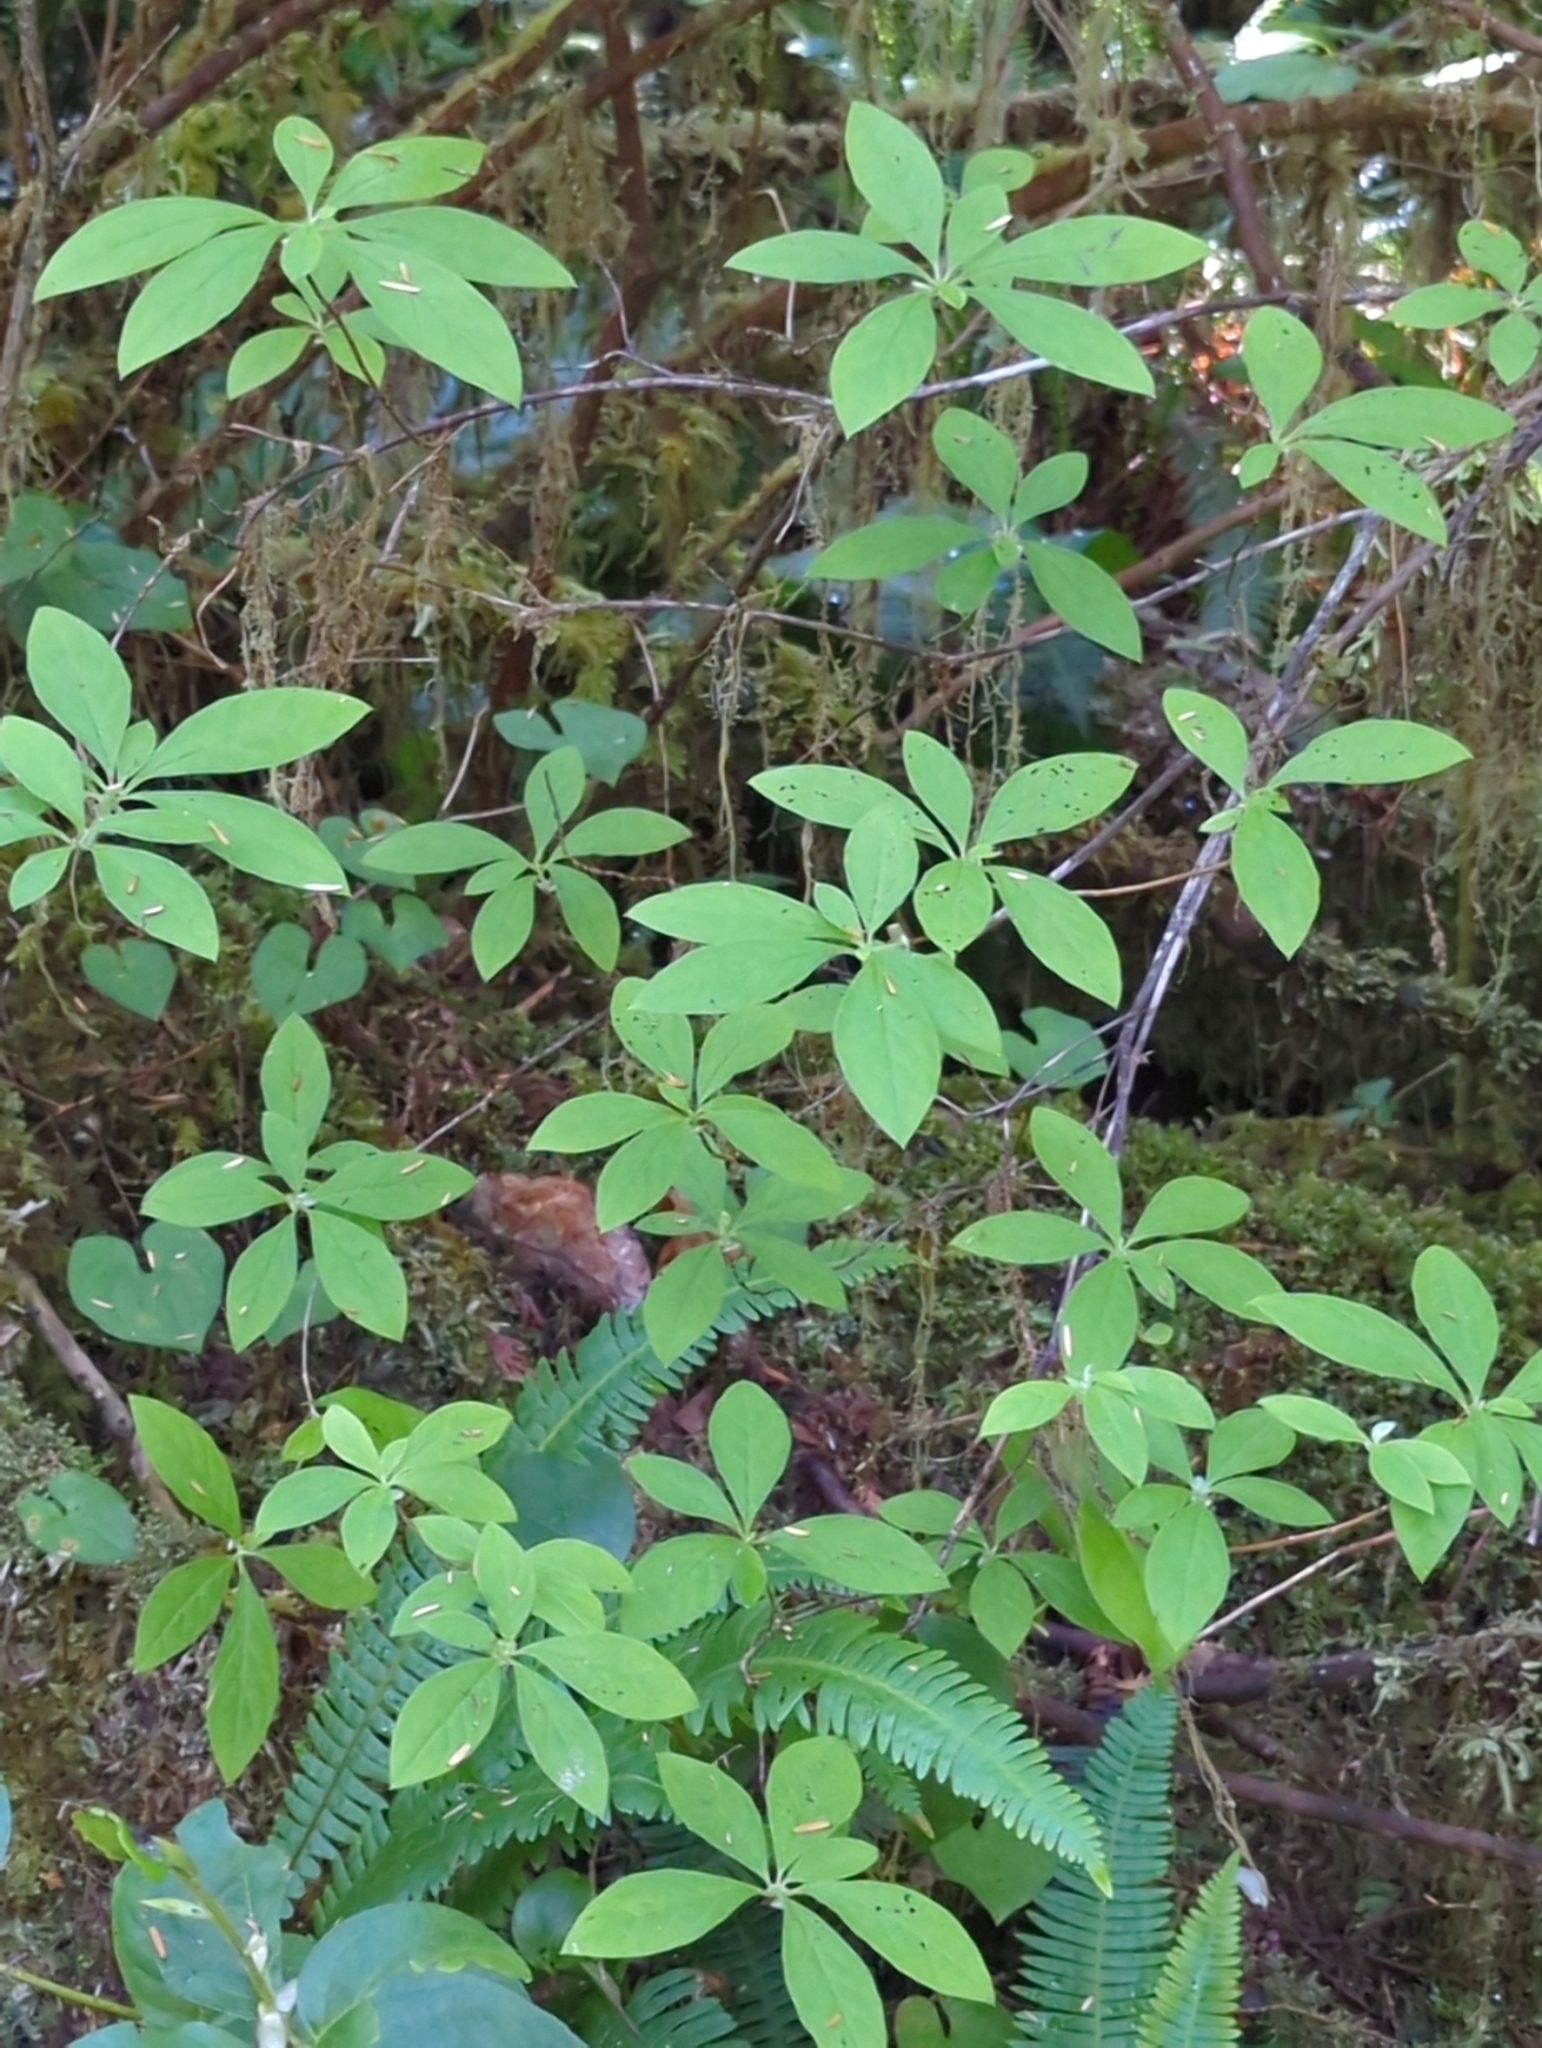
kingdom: Plantae
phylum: Tracheophyta
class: Magnoliopsida
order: Ericales
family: Ericaceae
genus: Rhododendron
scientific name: Rhododendron menziesii
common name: Pacific menziesia
